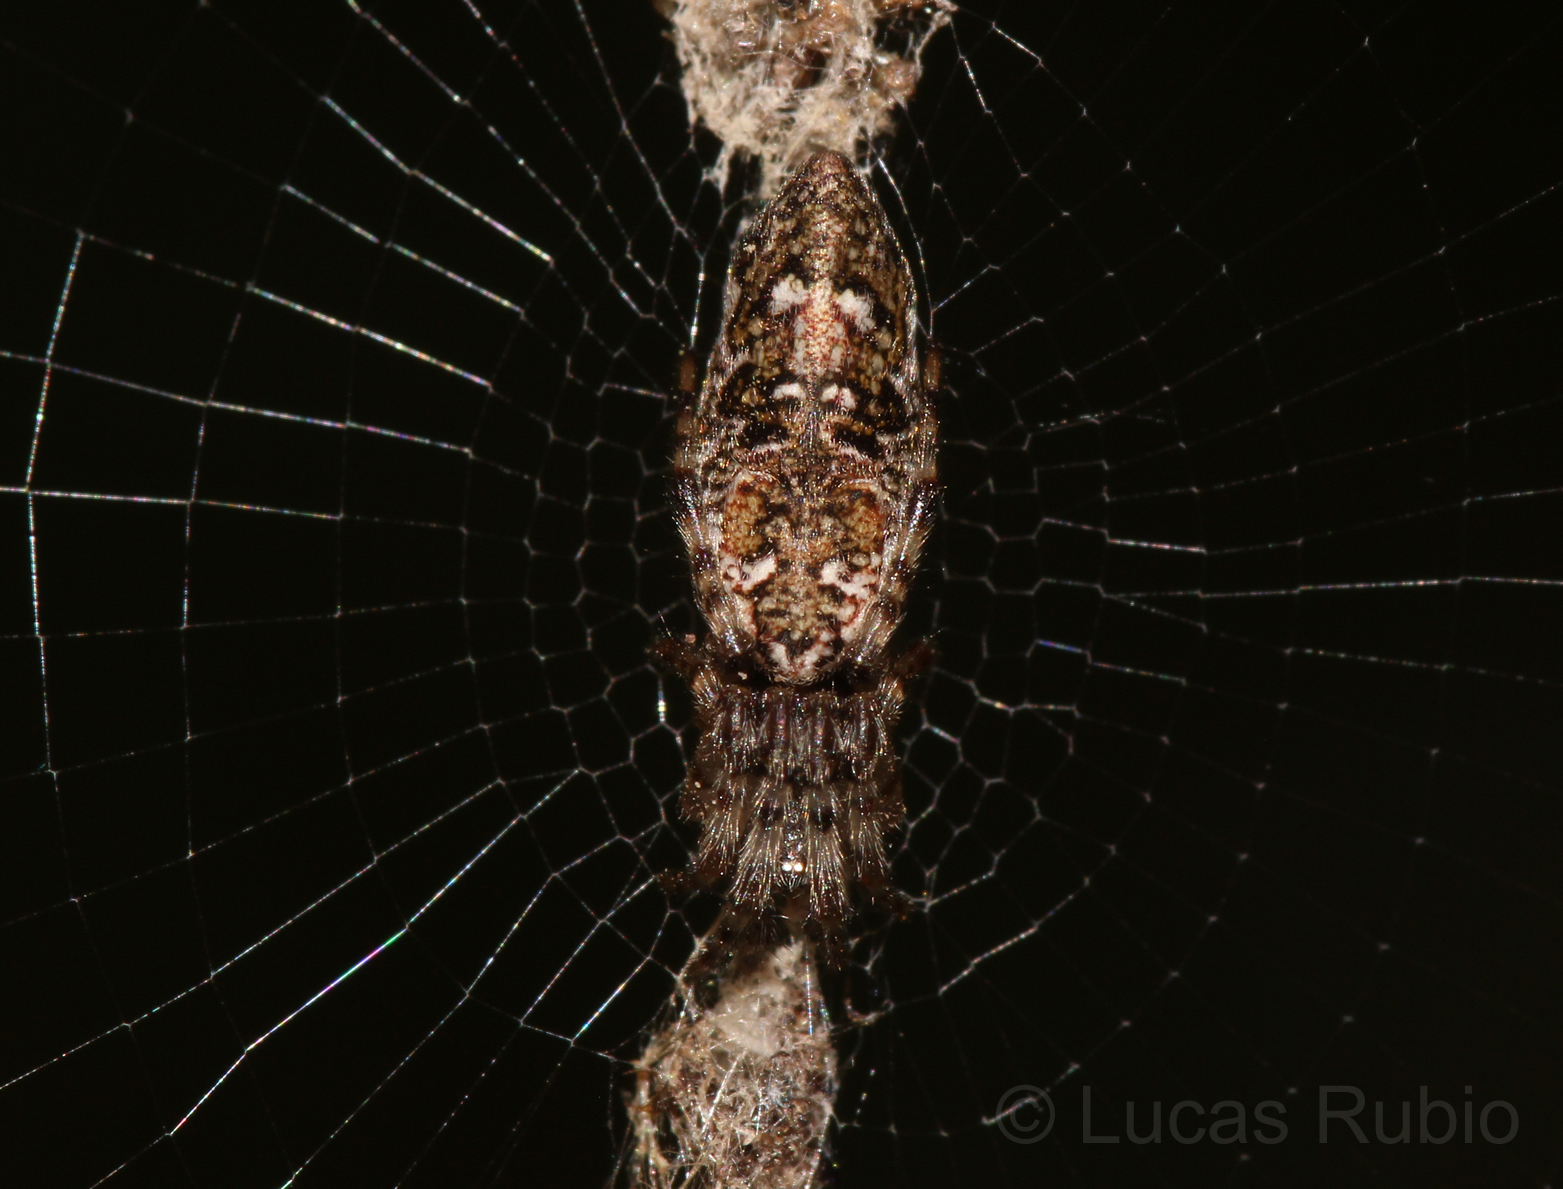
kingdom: Animalia
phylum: Arthropoda
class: Arachnida
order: Araneae
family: Araneidae
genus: Cyclosa
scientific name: Cyclosa machadinho
